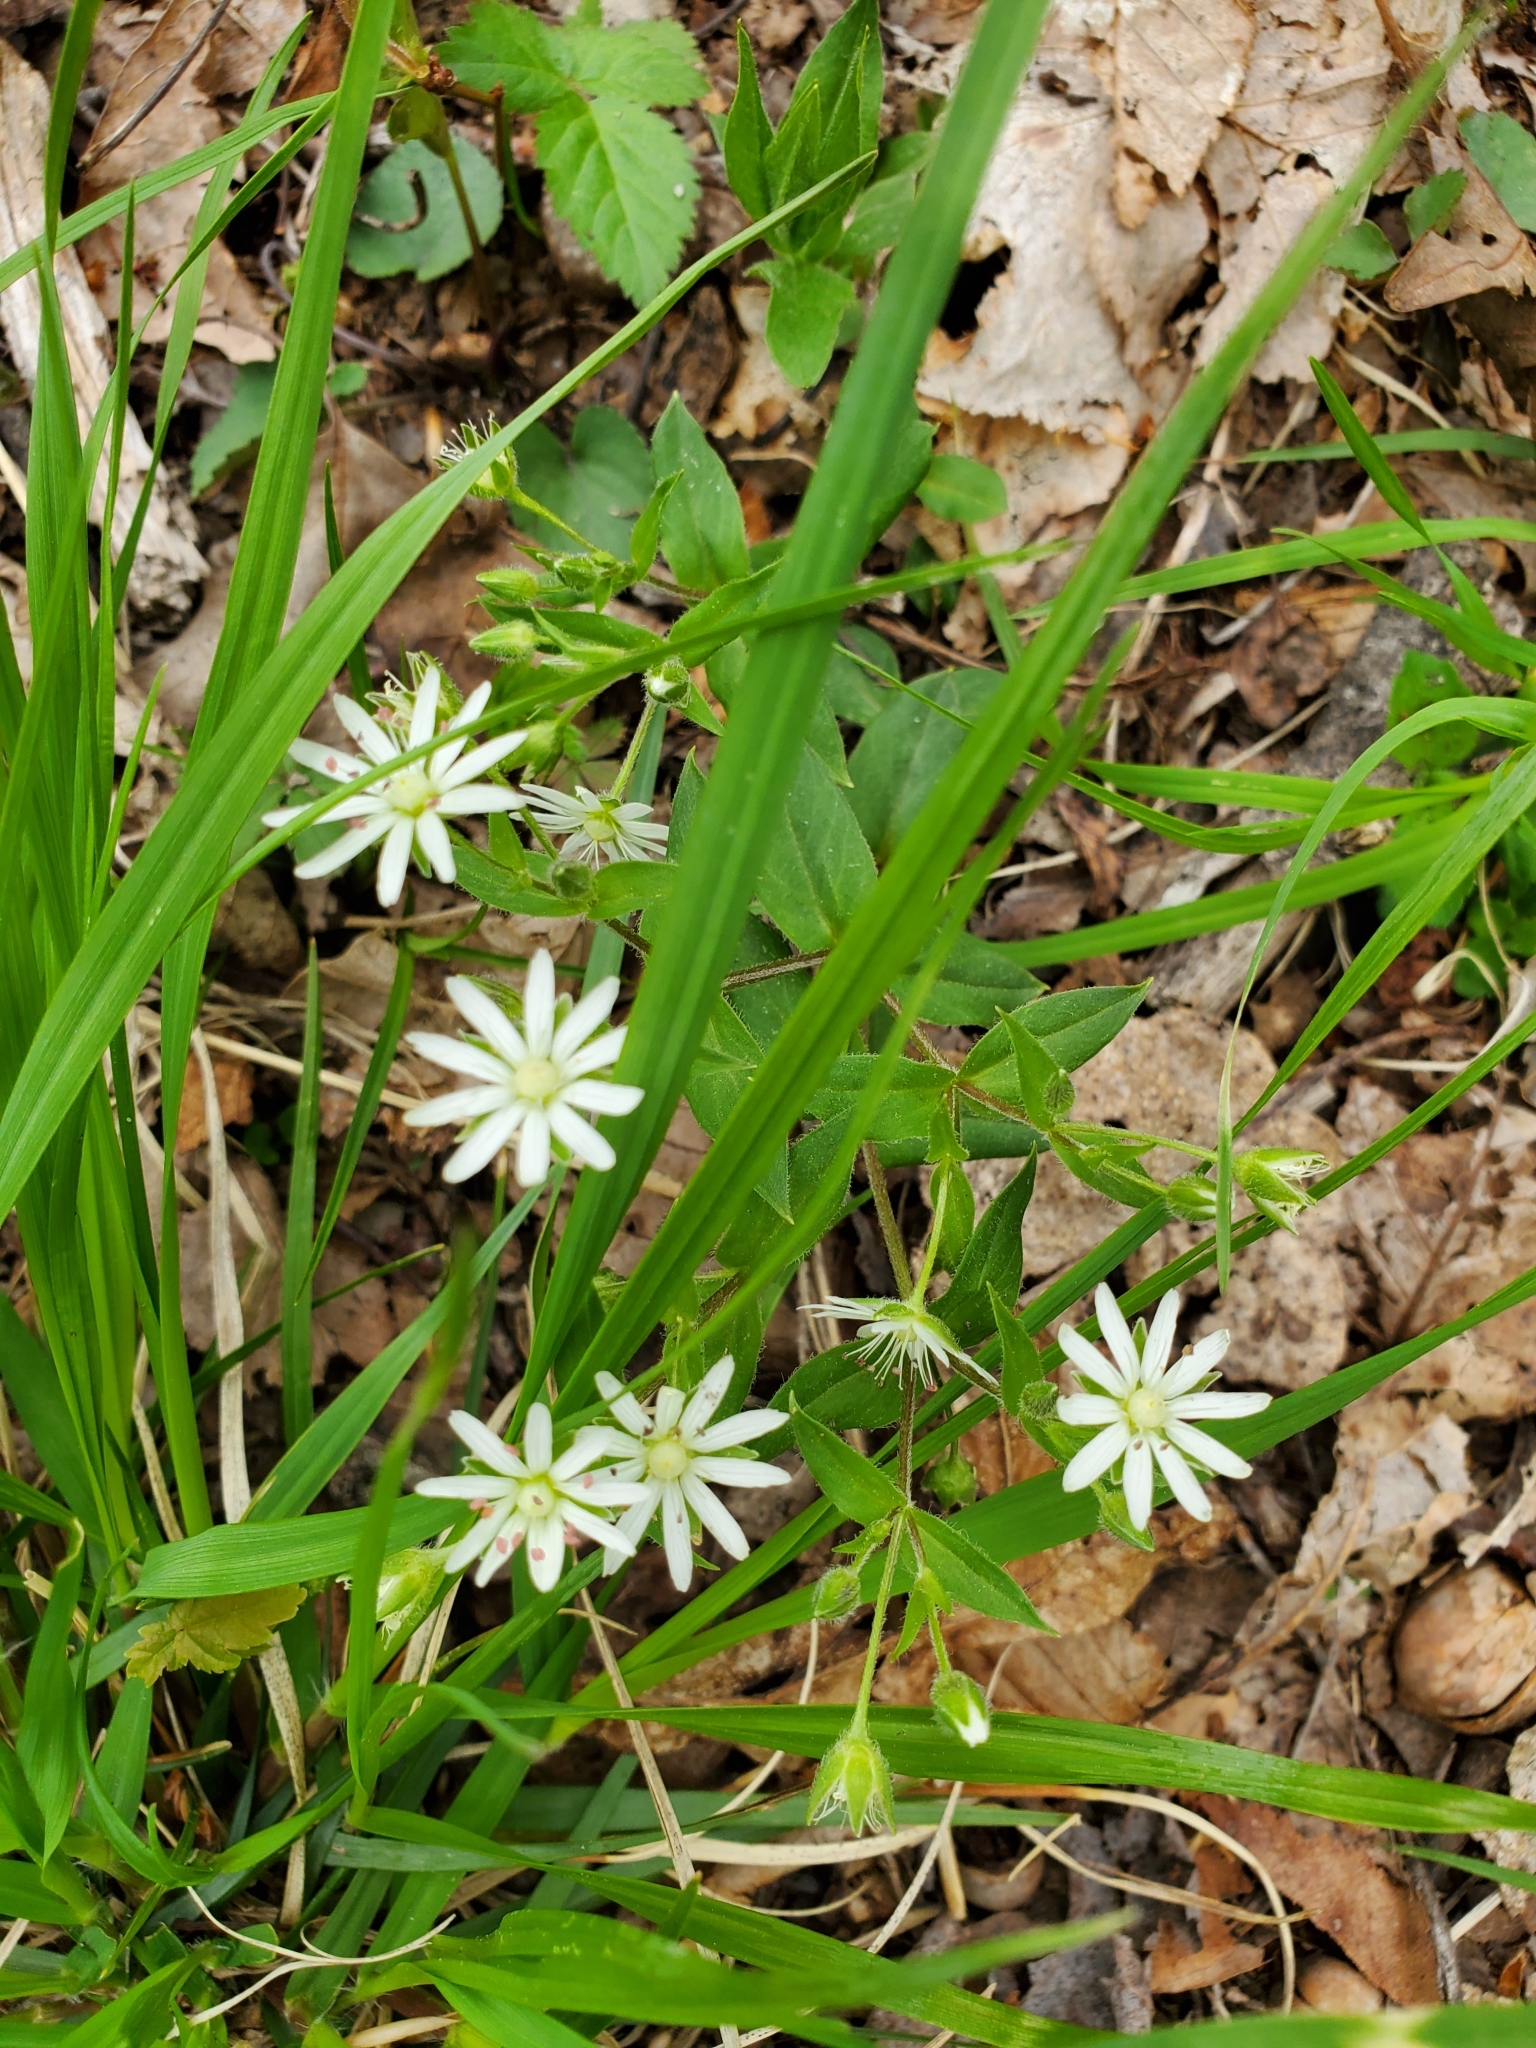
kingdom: Plantae
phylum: Tracheophyta
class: Magnoliopsida
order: Caryophyllales
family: Caryophyllaceae
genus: Stellaria
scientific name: Stellaria pubera
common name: Star chickweed
